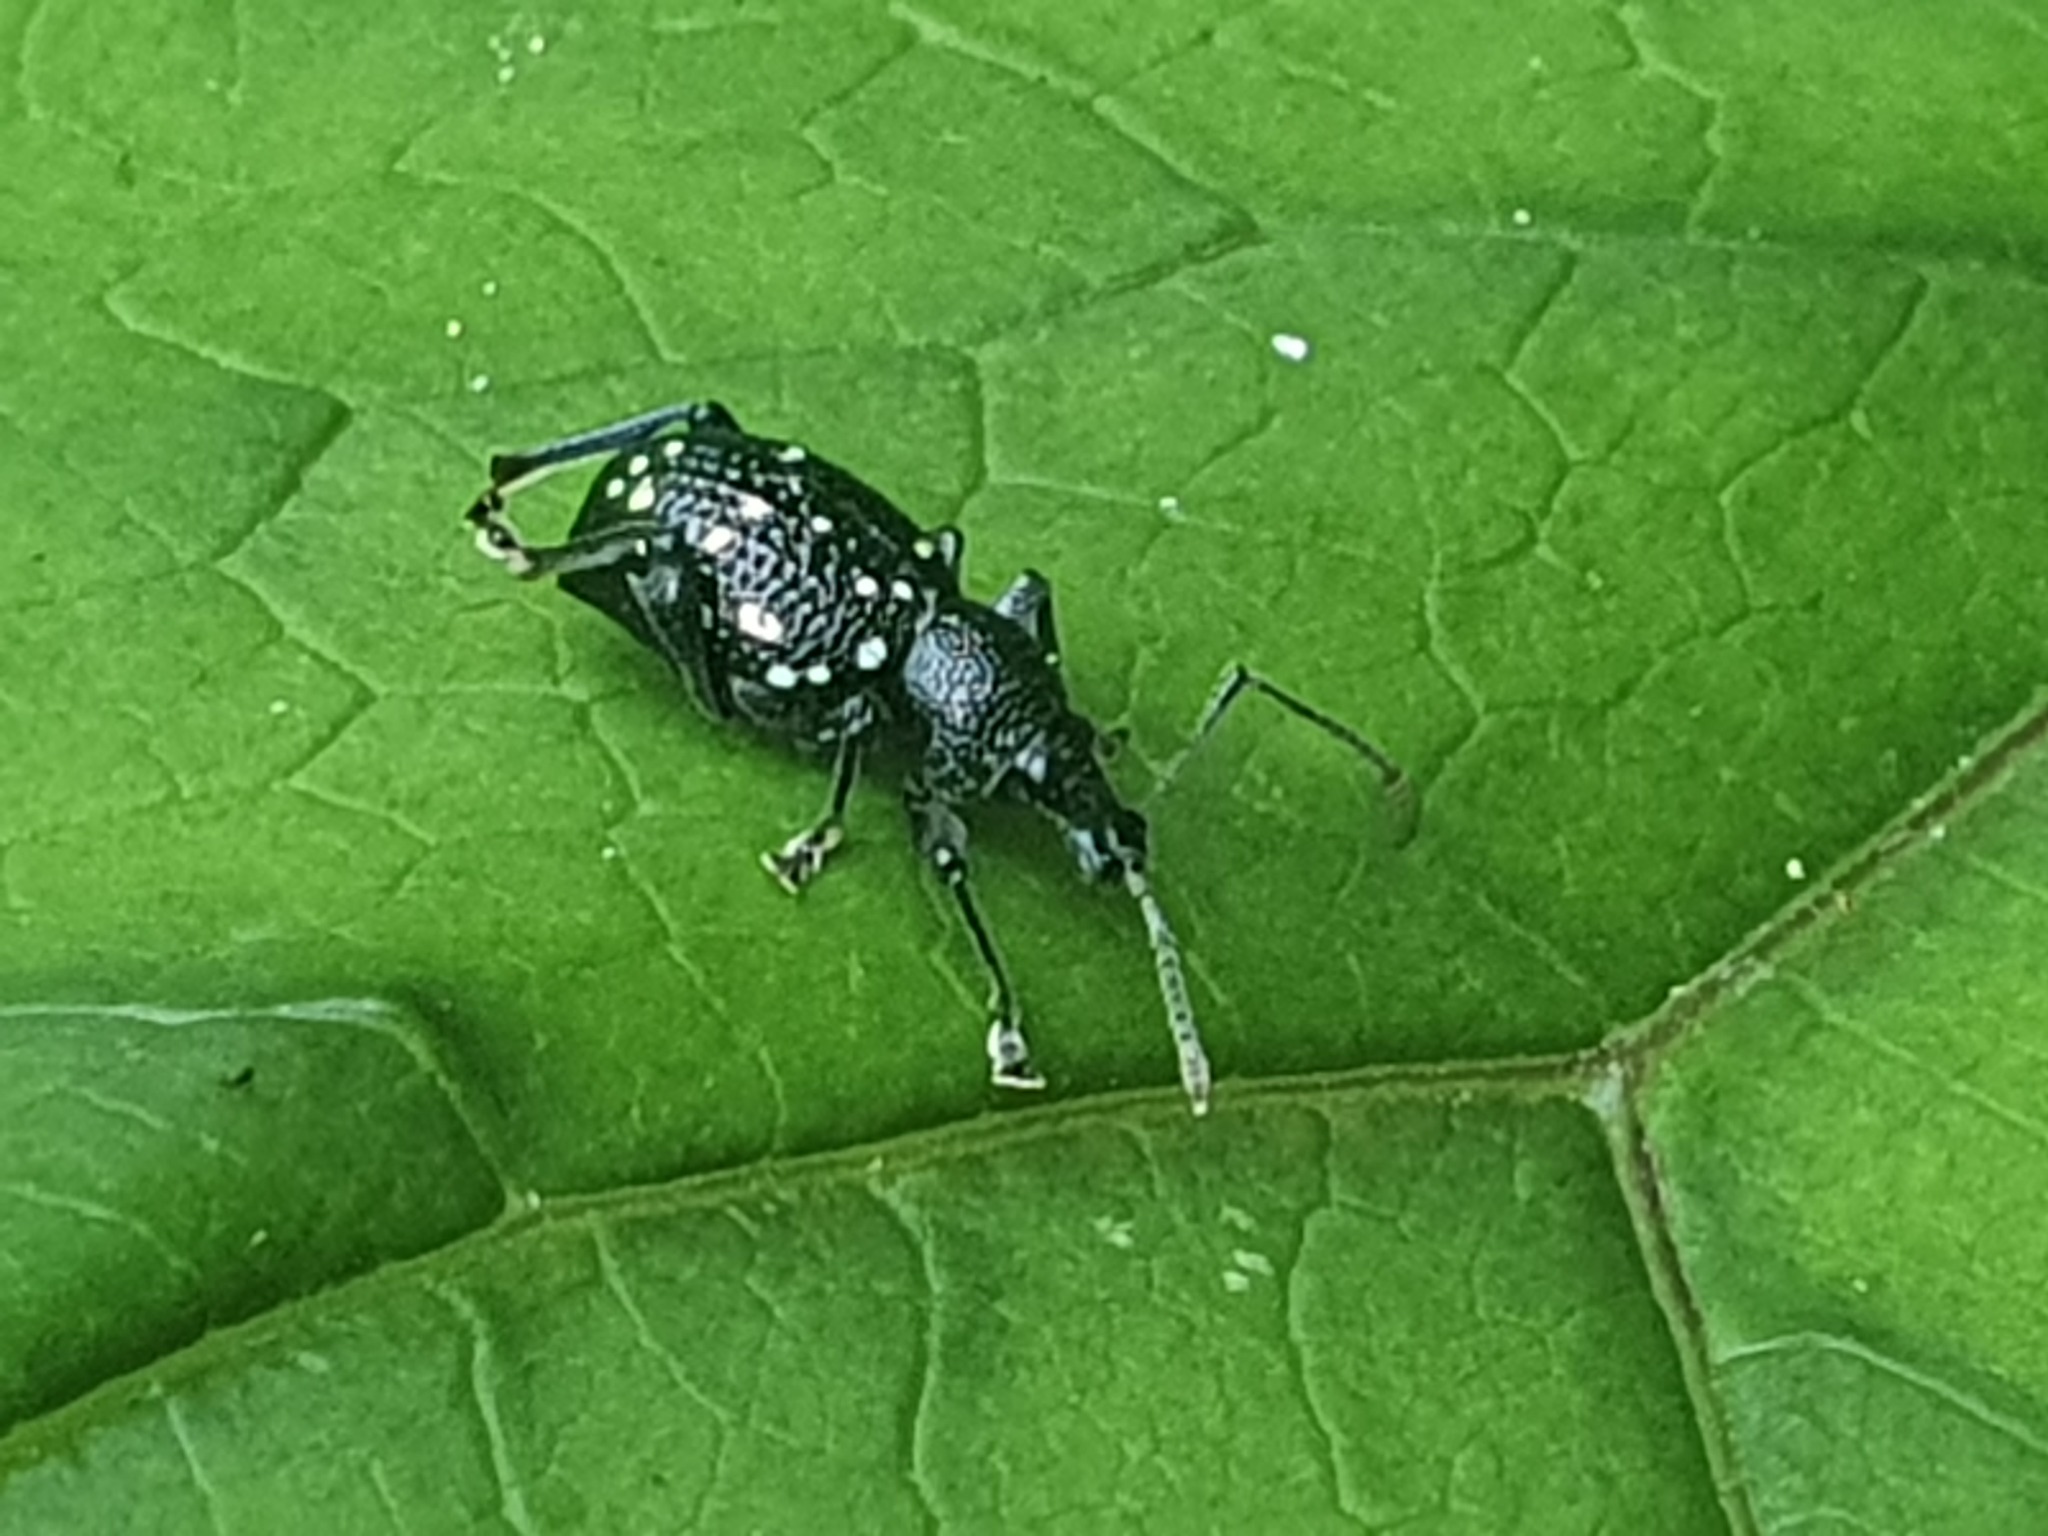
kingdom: Animalia
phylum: Arthropoda
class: Insecta
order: Coleoptera
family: Curculionidae
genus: Otiorhynchus
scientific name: Otiorhynchus gemmatus
